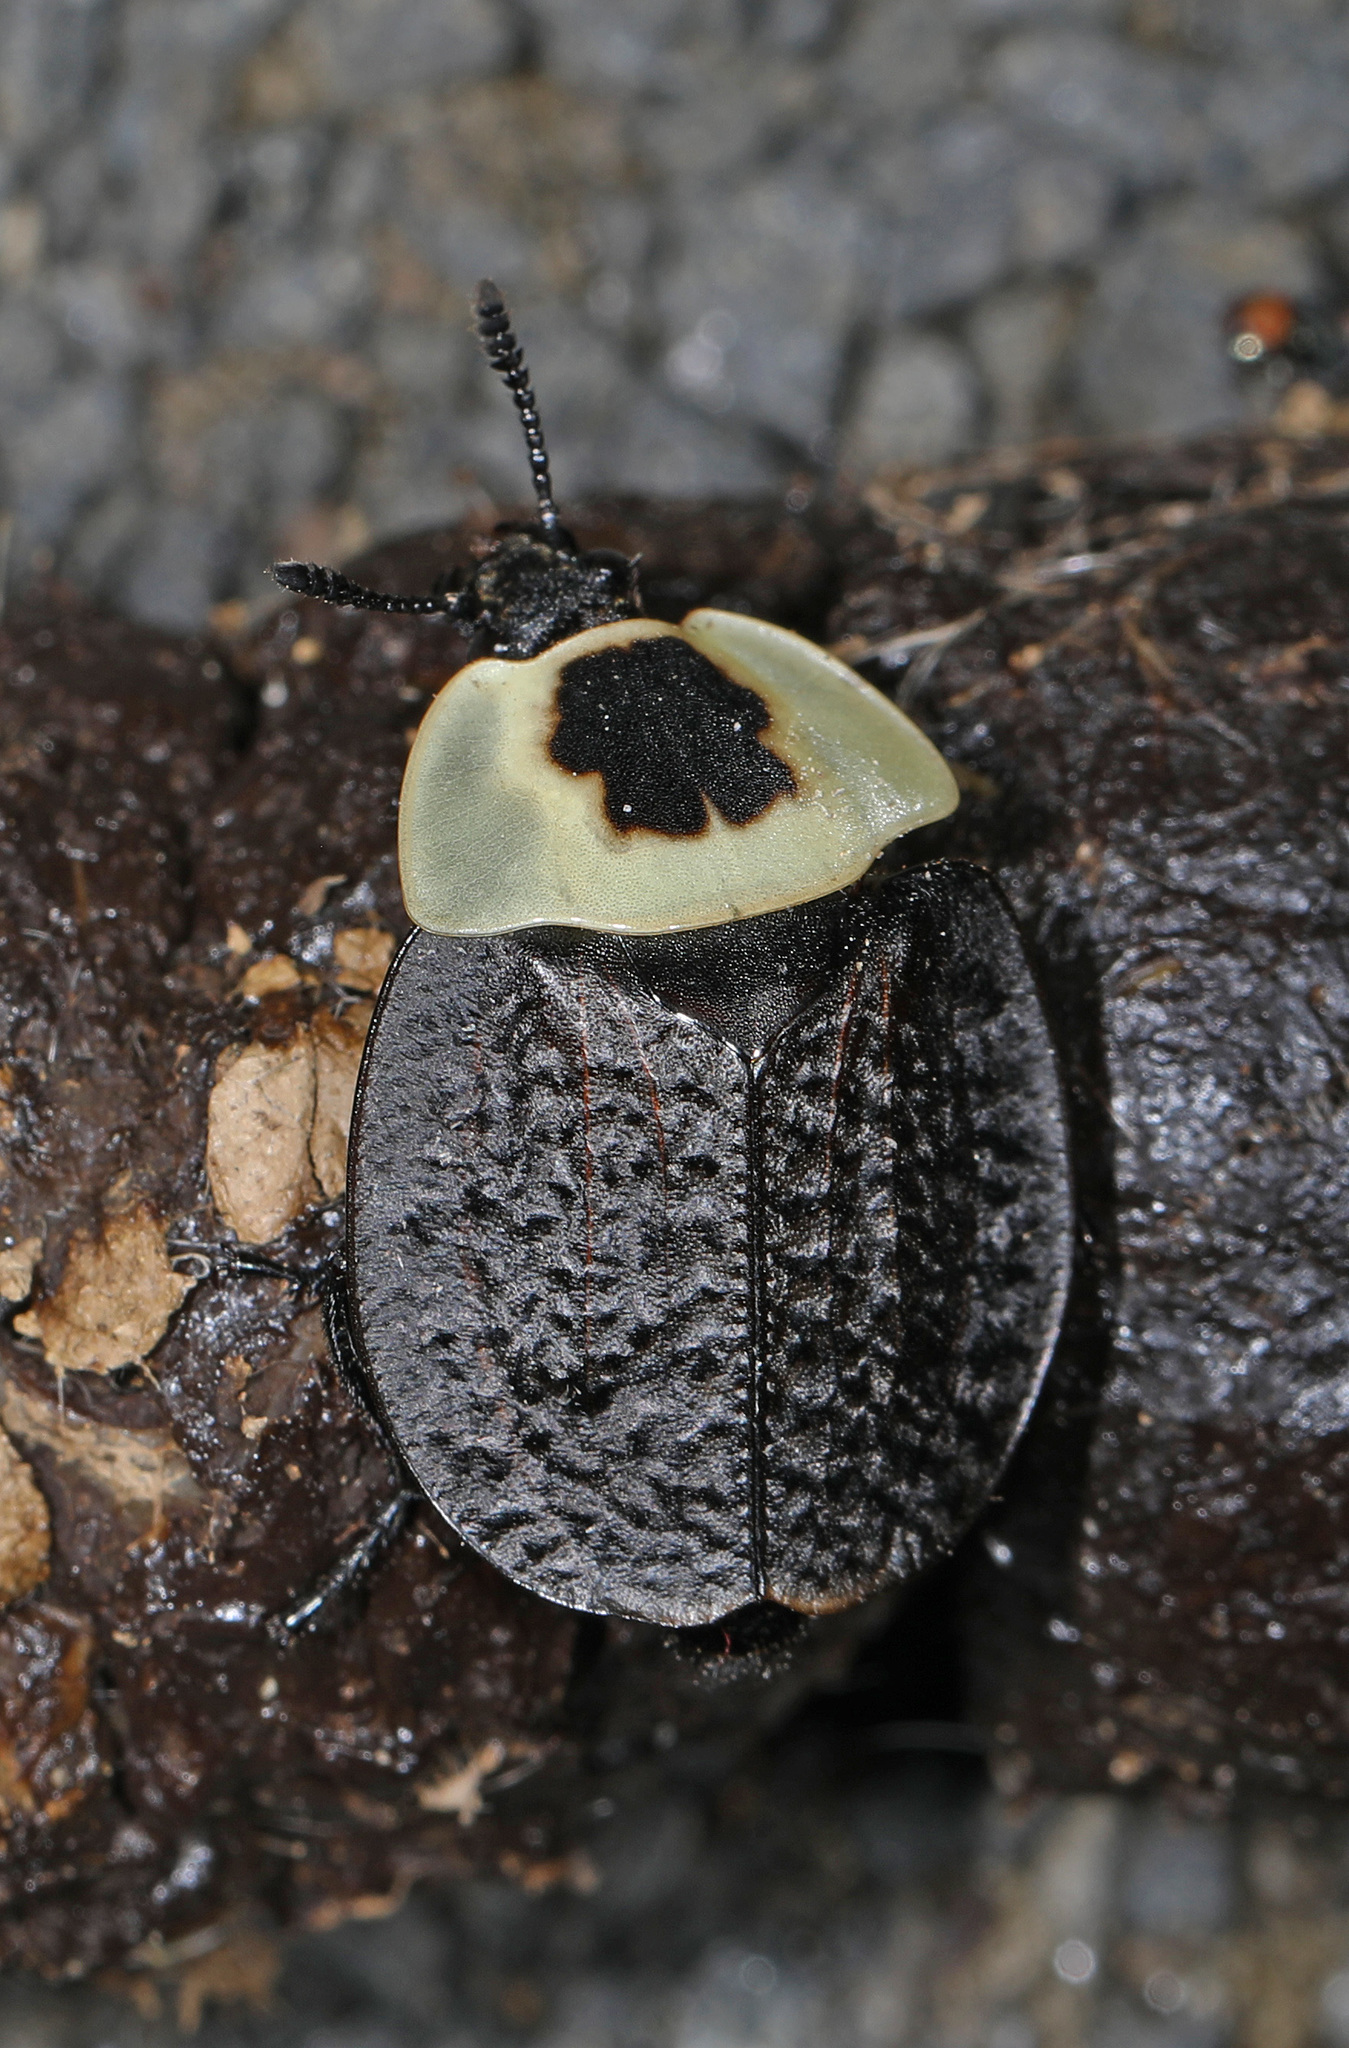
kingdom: Animalia
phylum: Arthropoda
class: Insecta
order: Coleoptera
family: Staphylinidae
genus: Necrophila
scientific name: Necrophila americana
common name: American carrion beetle
